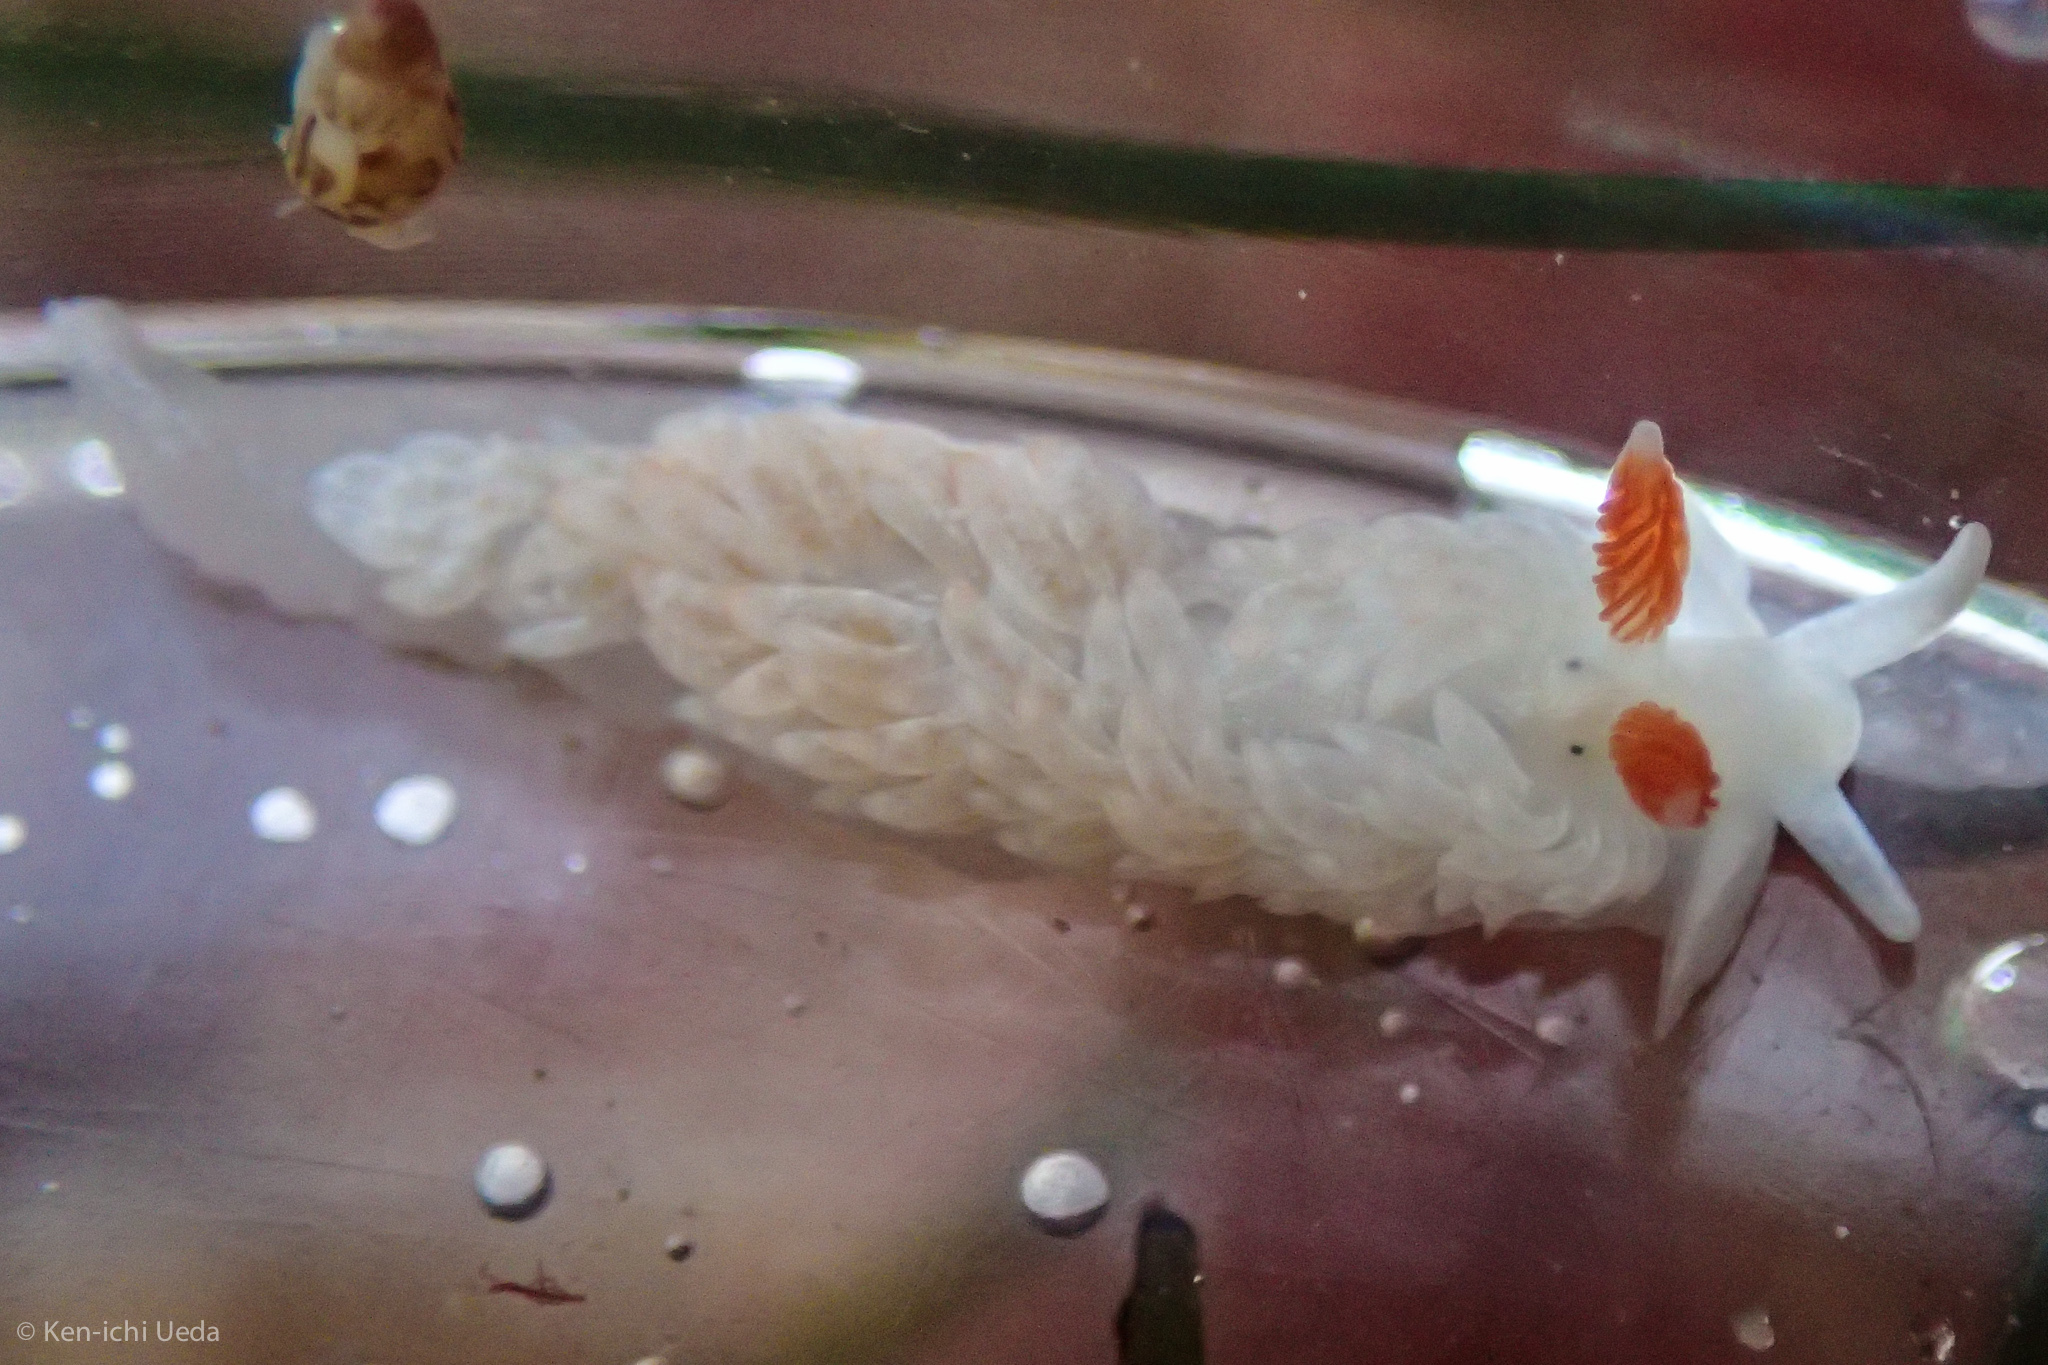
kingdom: Animalia
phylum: Mollusca
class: Gastropoda
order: Nudibranchia
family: Aeolidiidae
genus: Anteaeolidiella
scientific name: Anteaeolidiella oliviae
